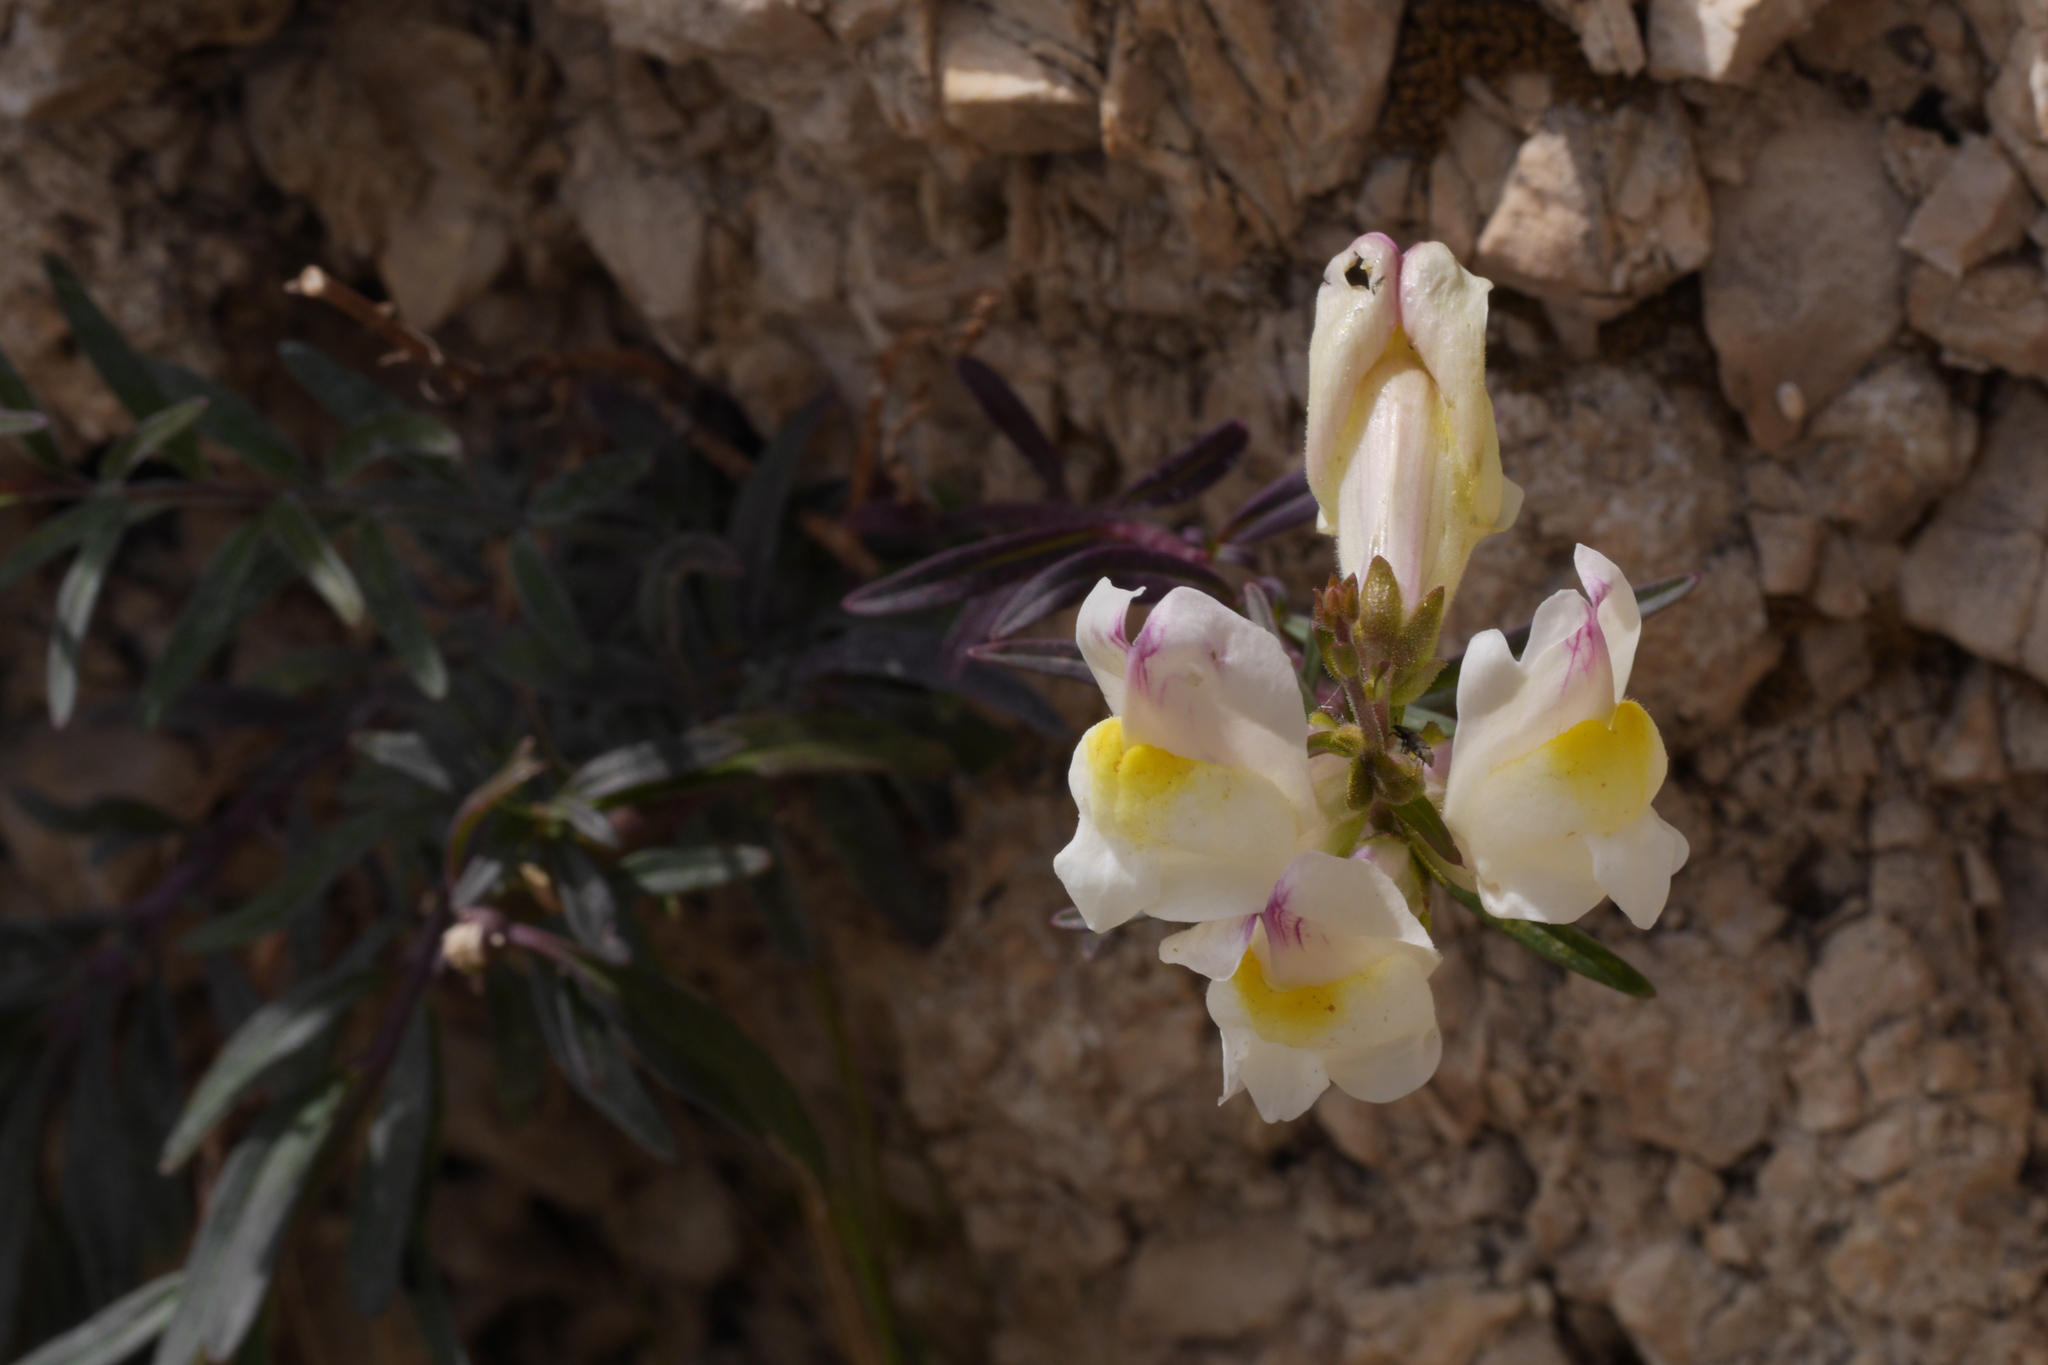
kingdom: Plantae
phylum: Tracheophyta
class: Magnoliopsida
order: Lamiales
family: Plantaginaceae
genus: Antirrhinum
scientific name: Antirrhinum siculum
